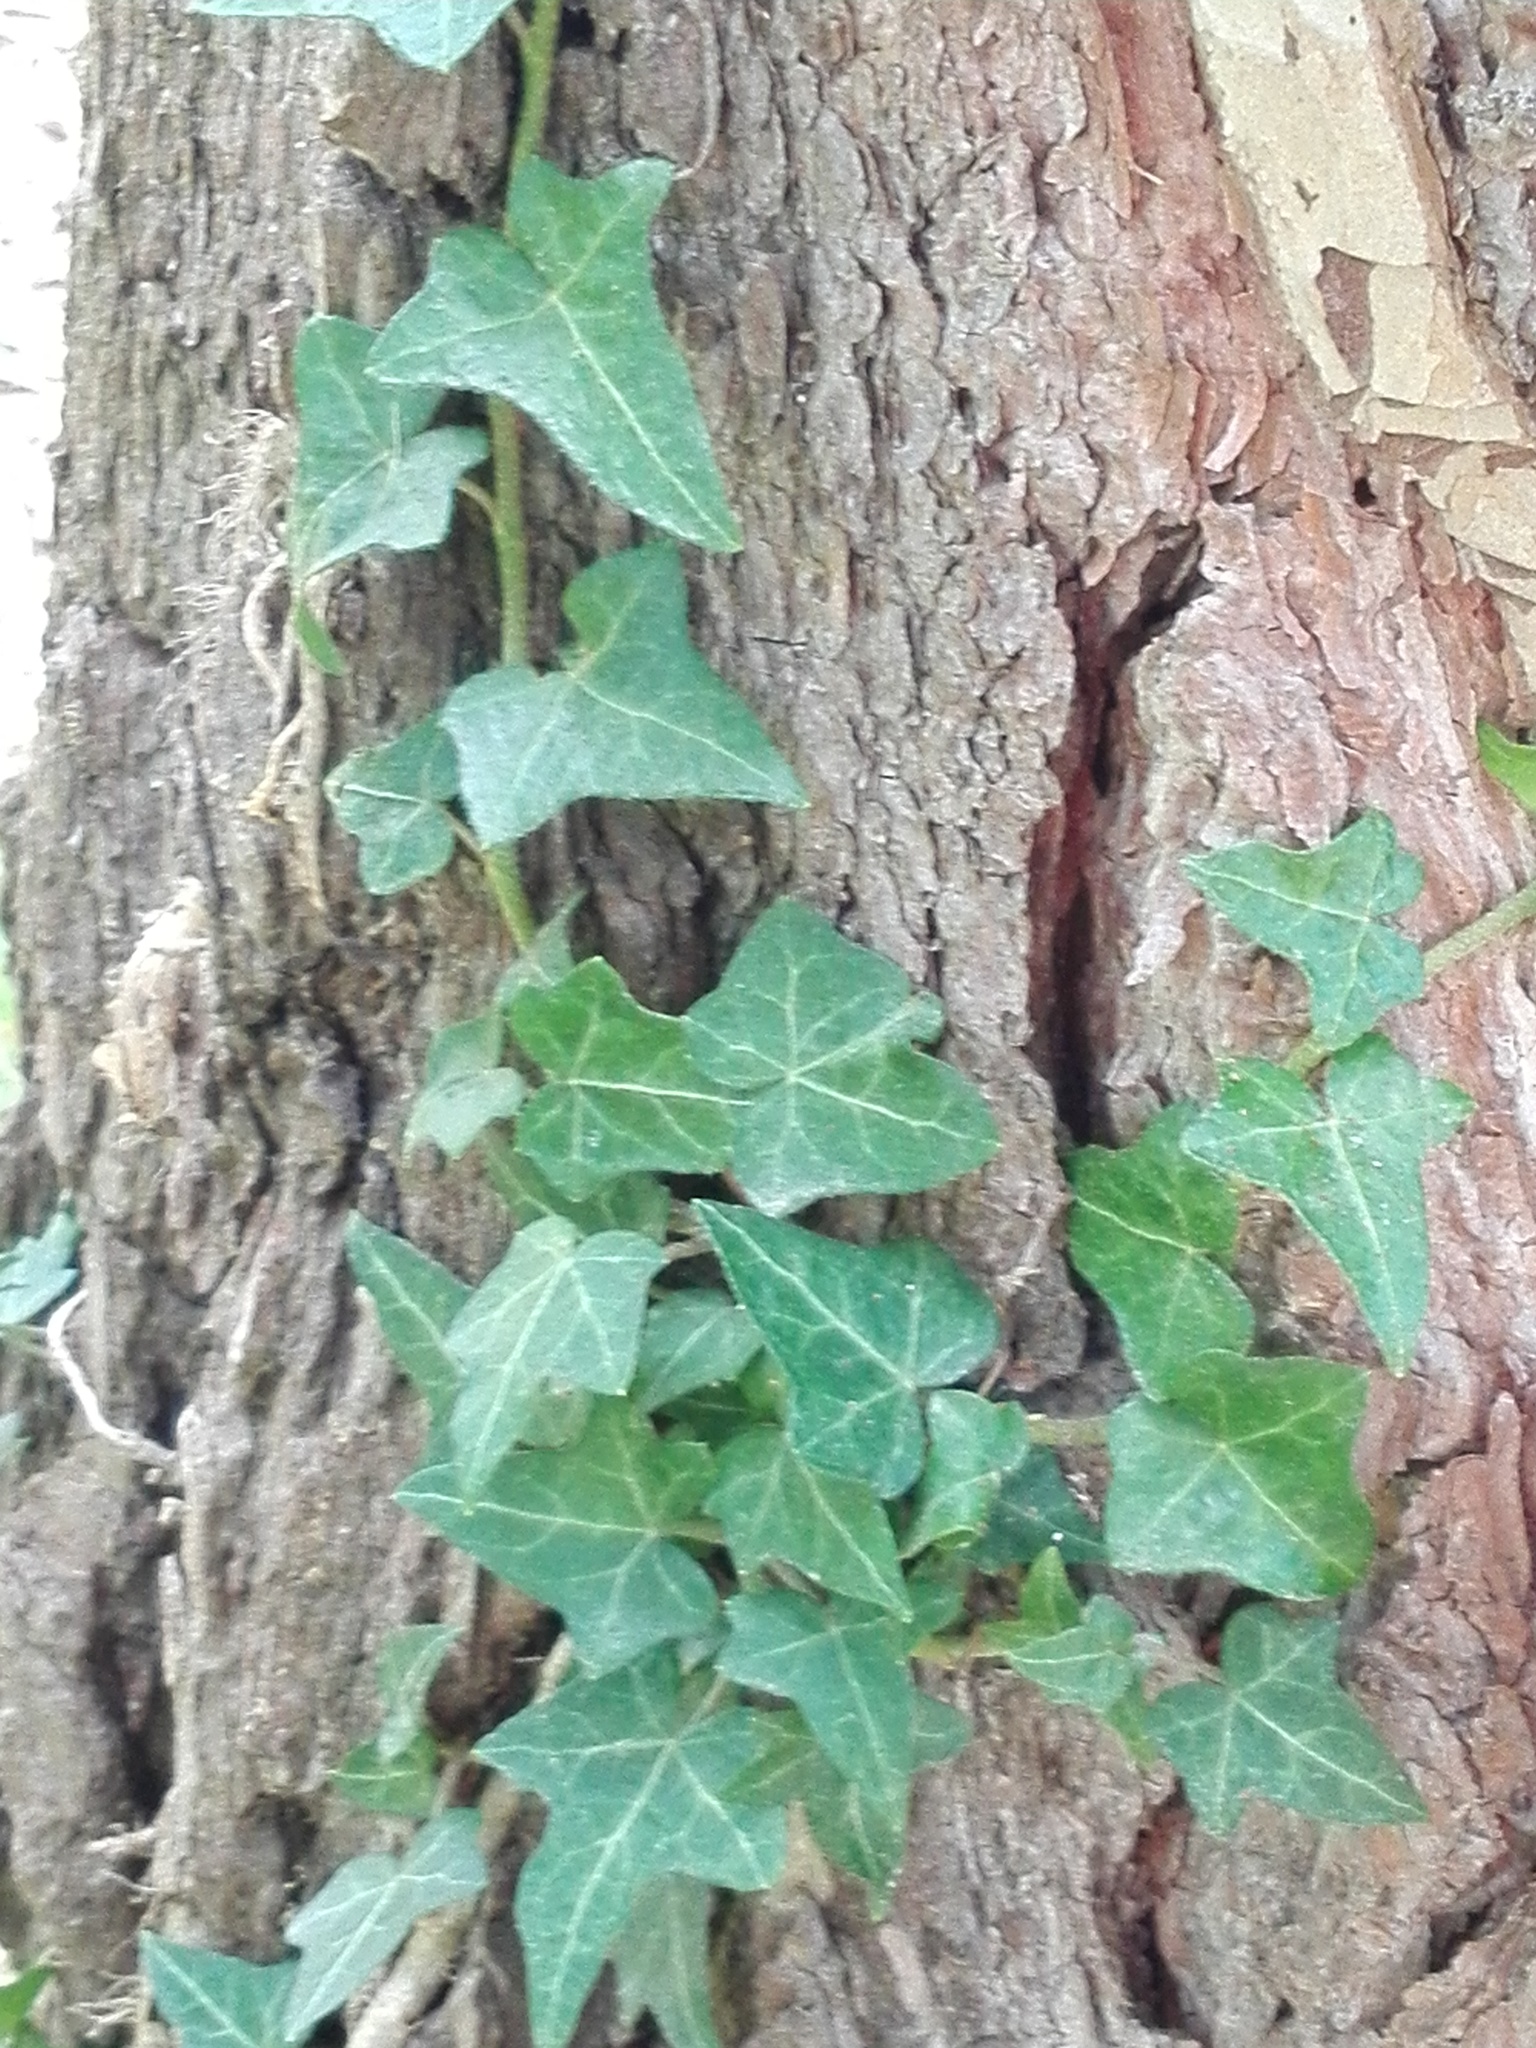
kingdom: Plantae
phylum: Tracheophyta
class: Magnoliopsida
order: Apiales
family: Araliaceae
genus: Hedera
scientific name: Hedera helix
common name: Ivy
